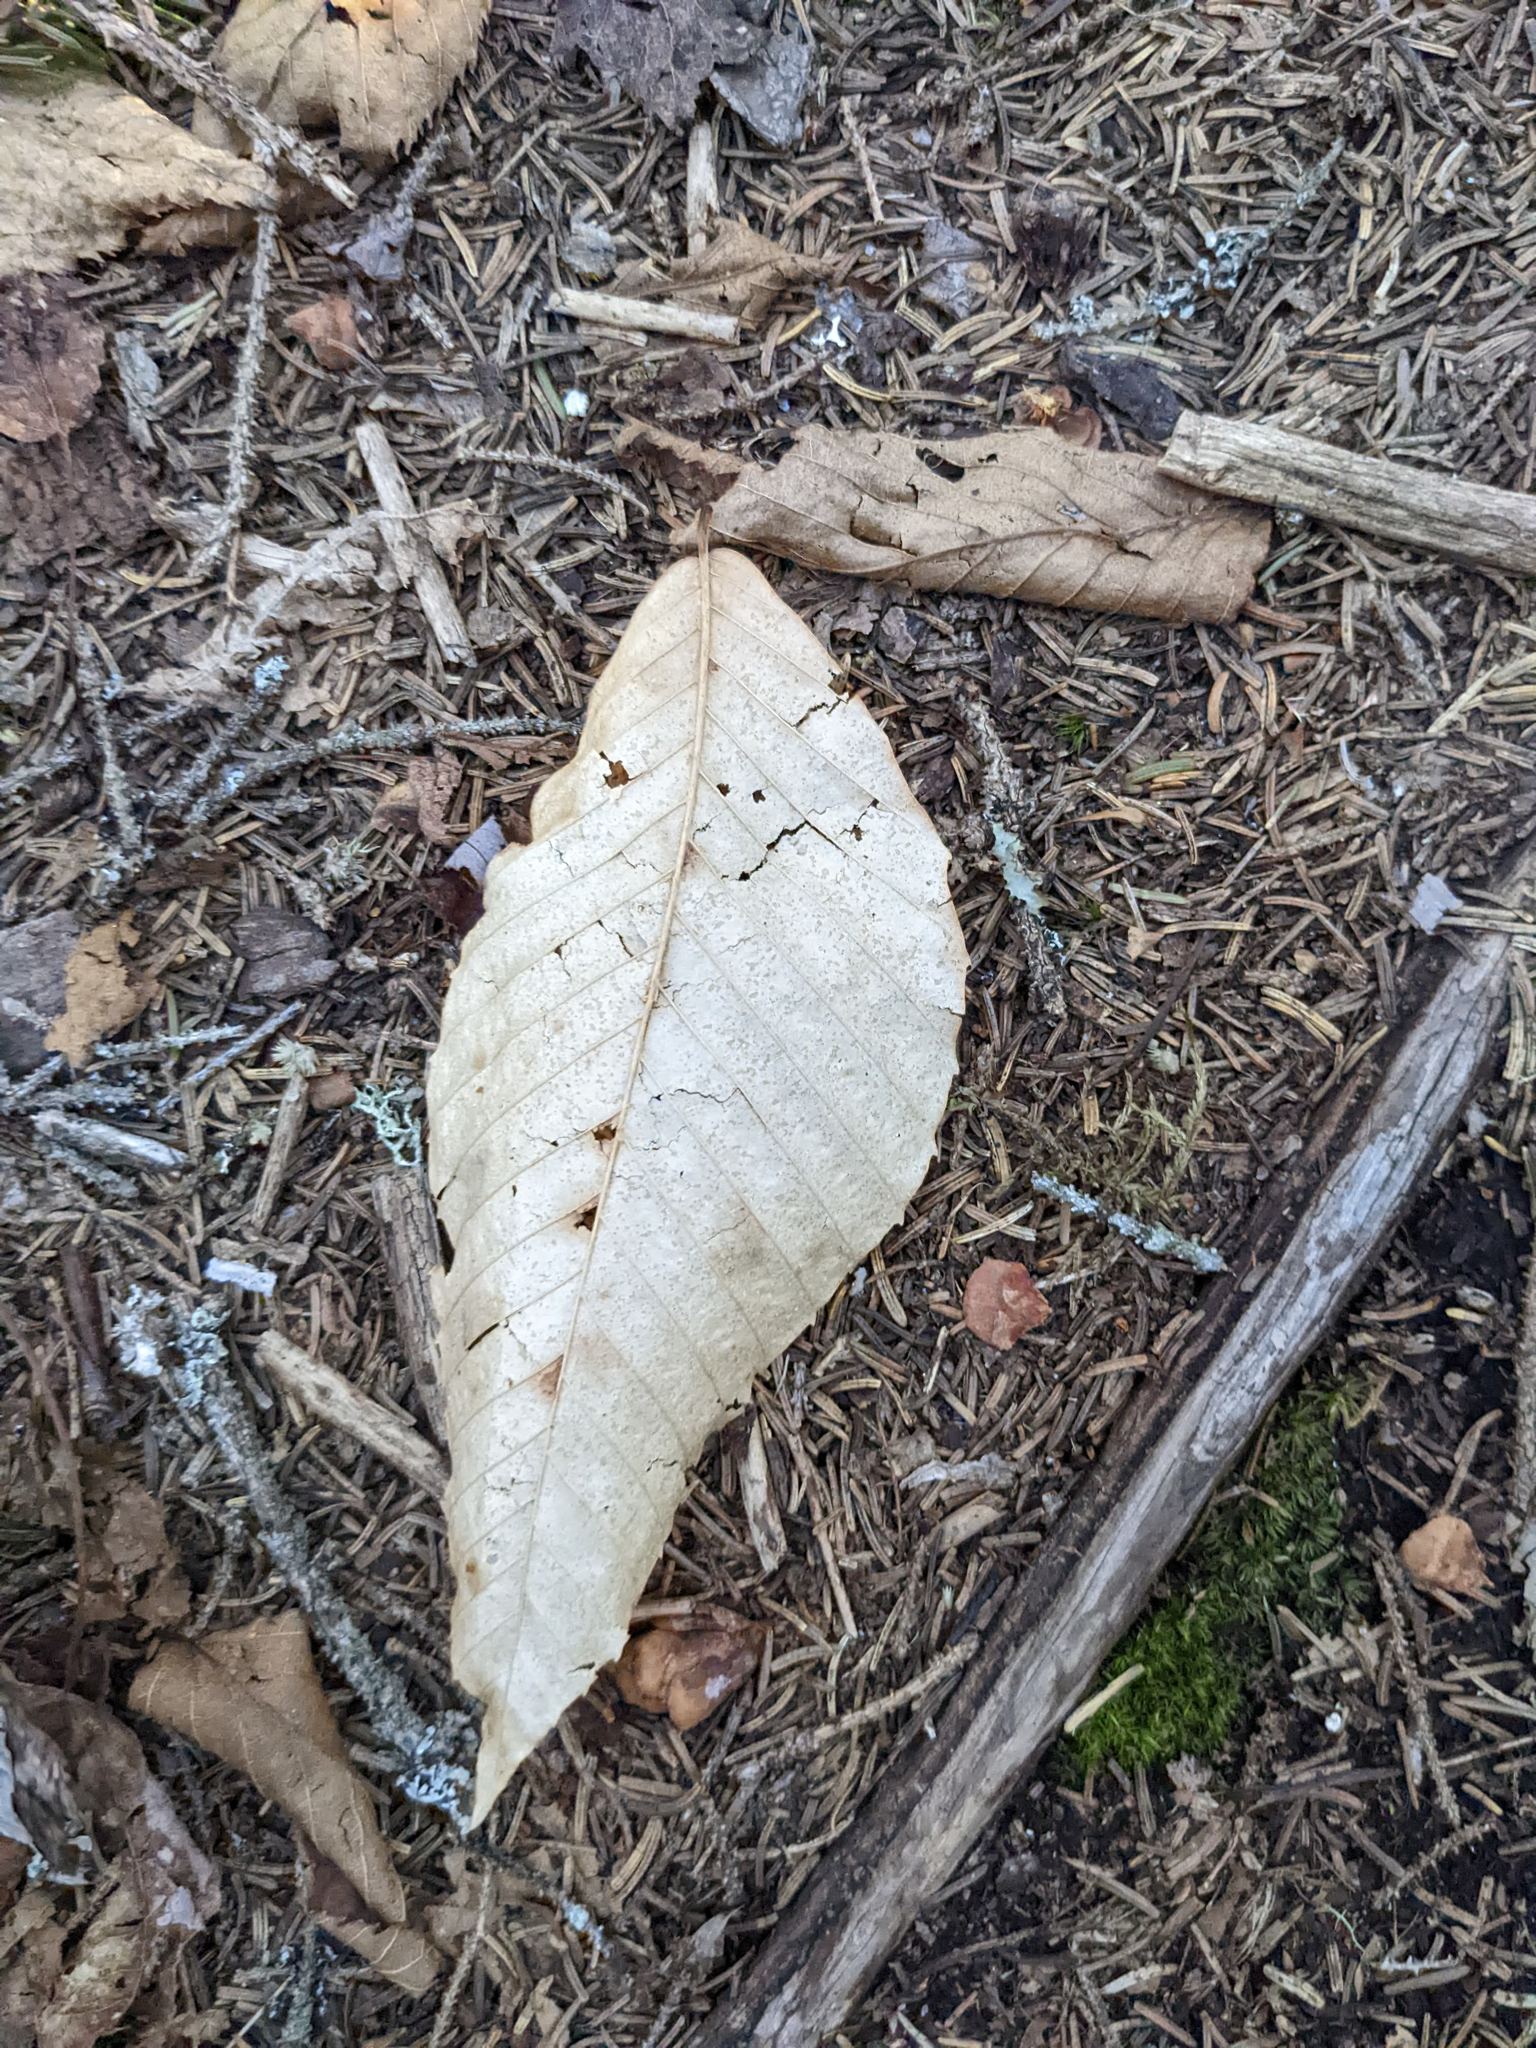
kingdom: Plantae
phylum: Tracheophyta
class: Magnoliopsida
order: Fagales
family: Fagaceae
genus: Fagus
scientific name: Fagus grandifolia
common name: American beech
